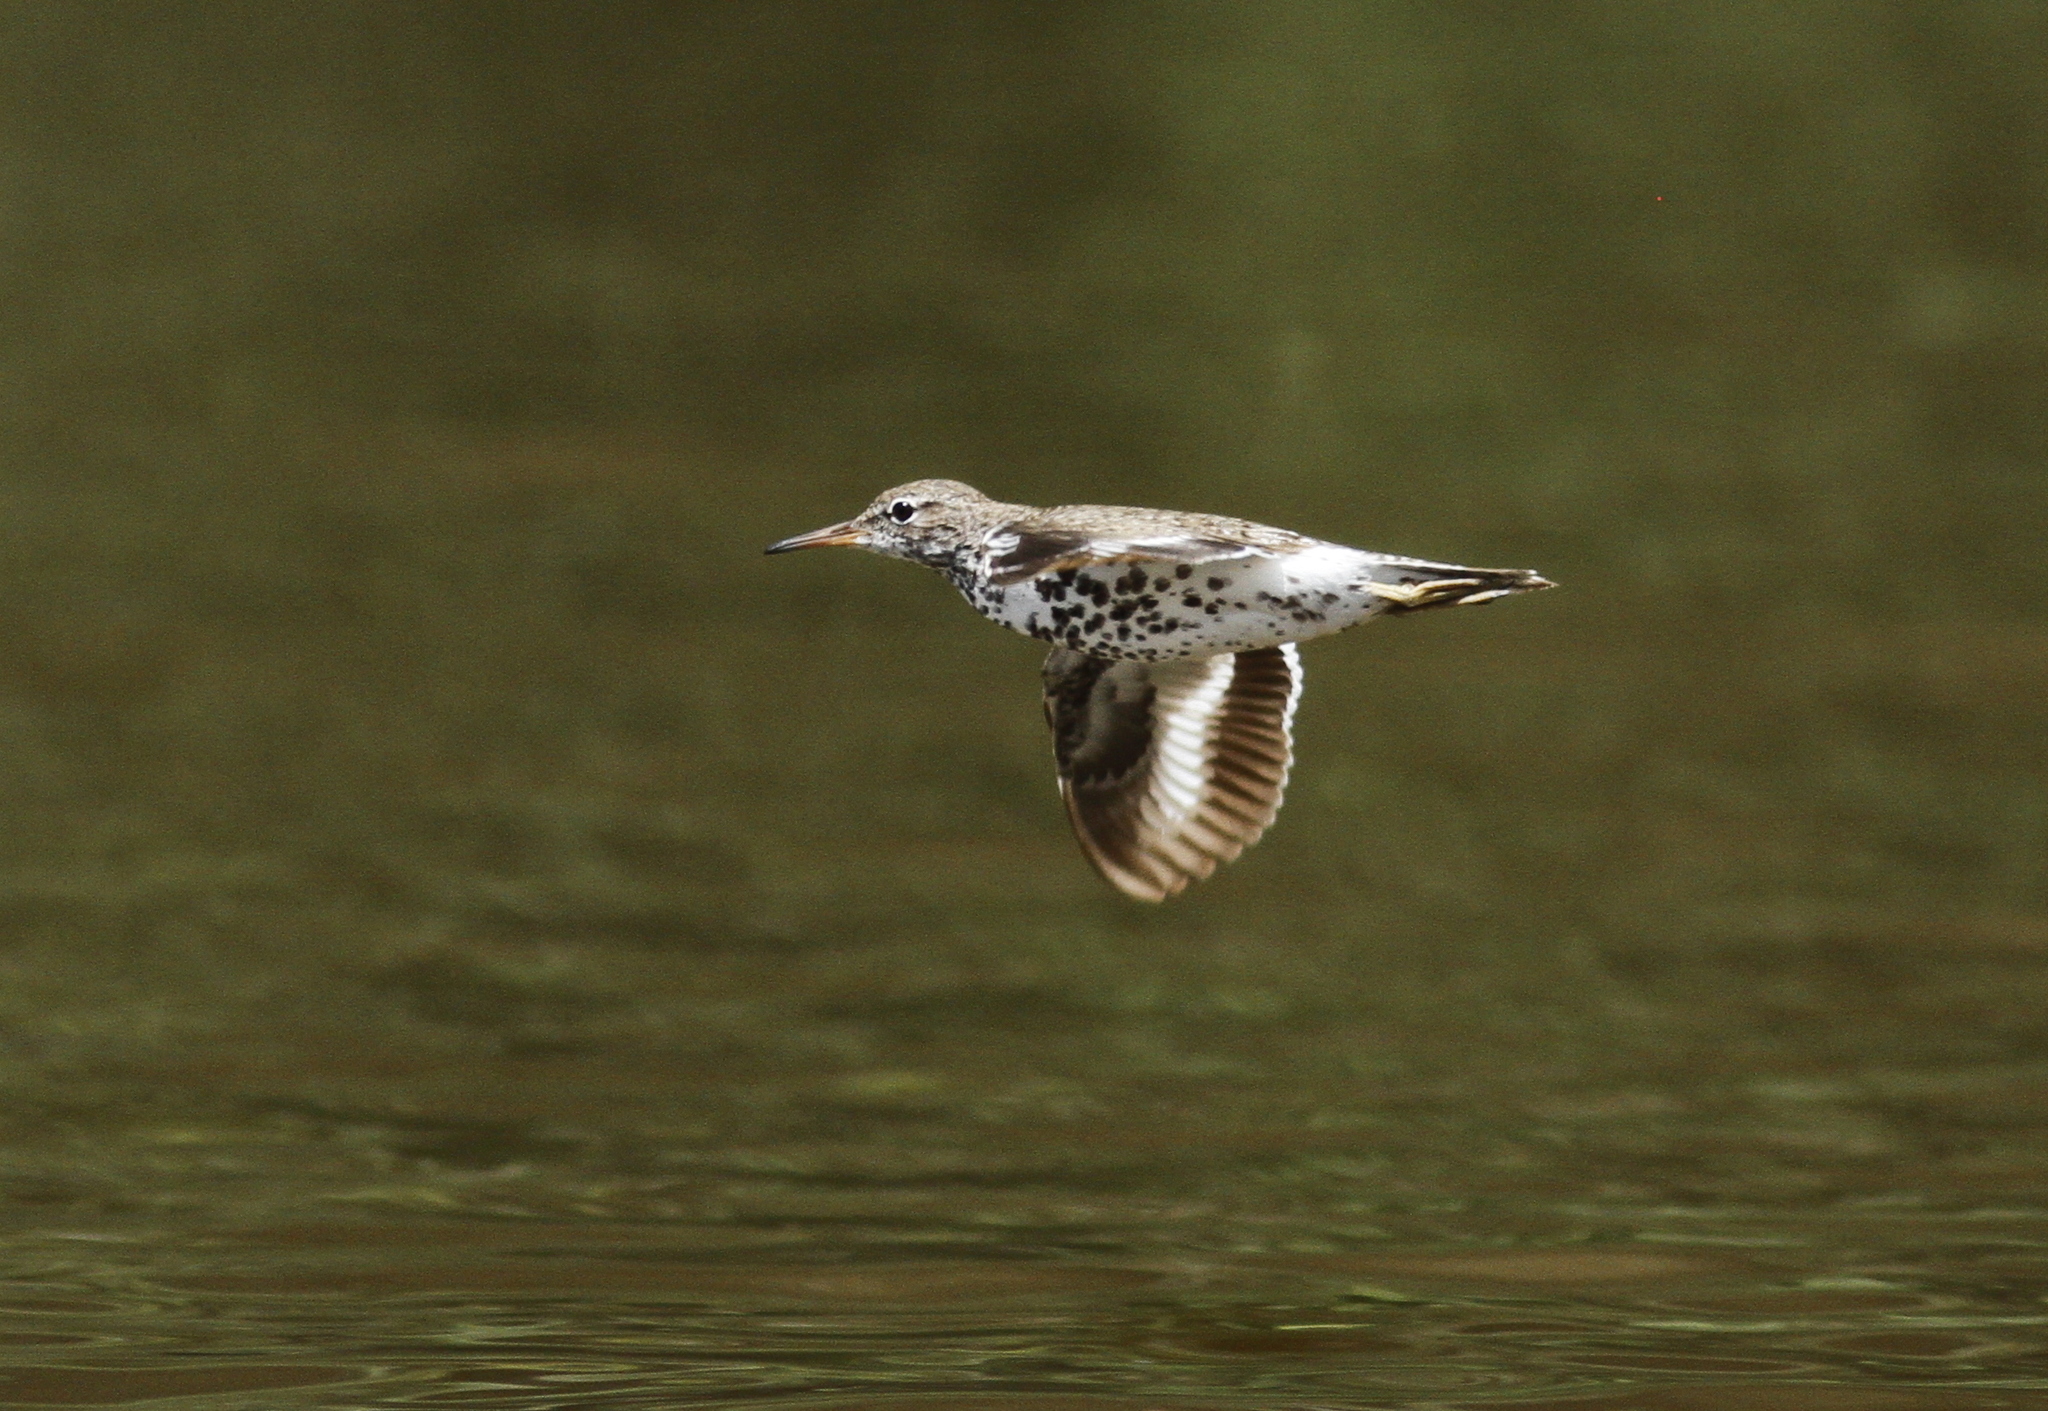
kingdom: Animalia
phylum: Chordata
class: Aves
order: Charadriiformes
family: Scolopacidae
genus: Actitis
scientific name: Actitis macularius
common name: Spotted sandpiper
